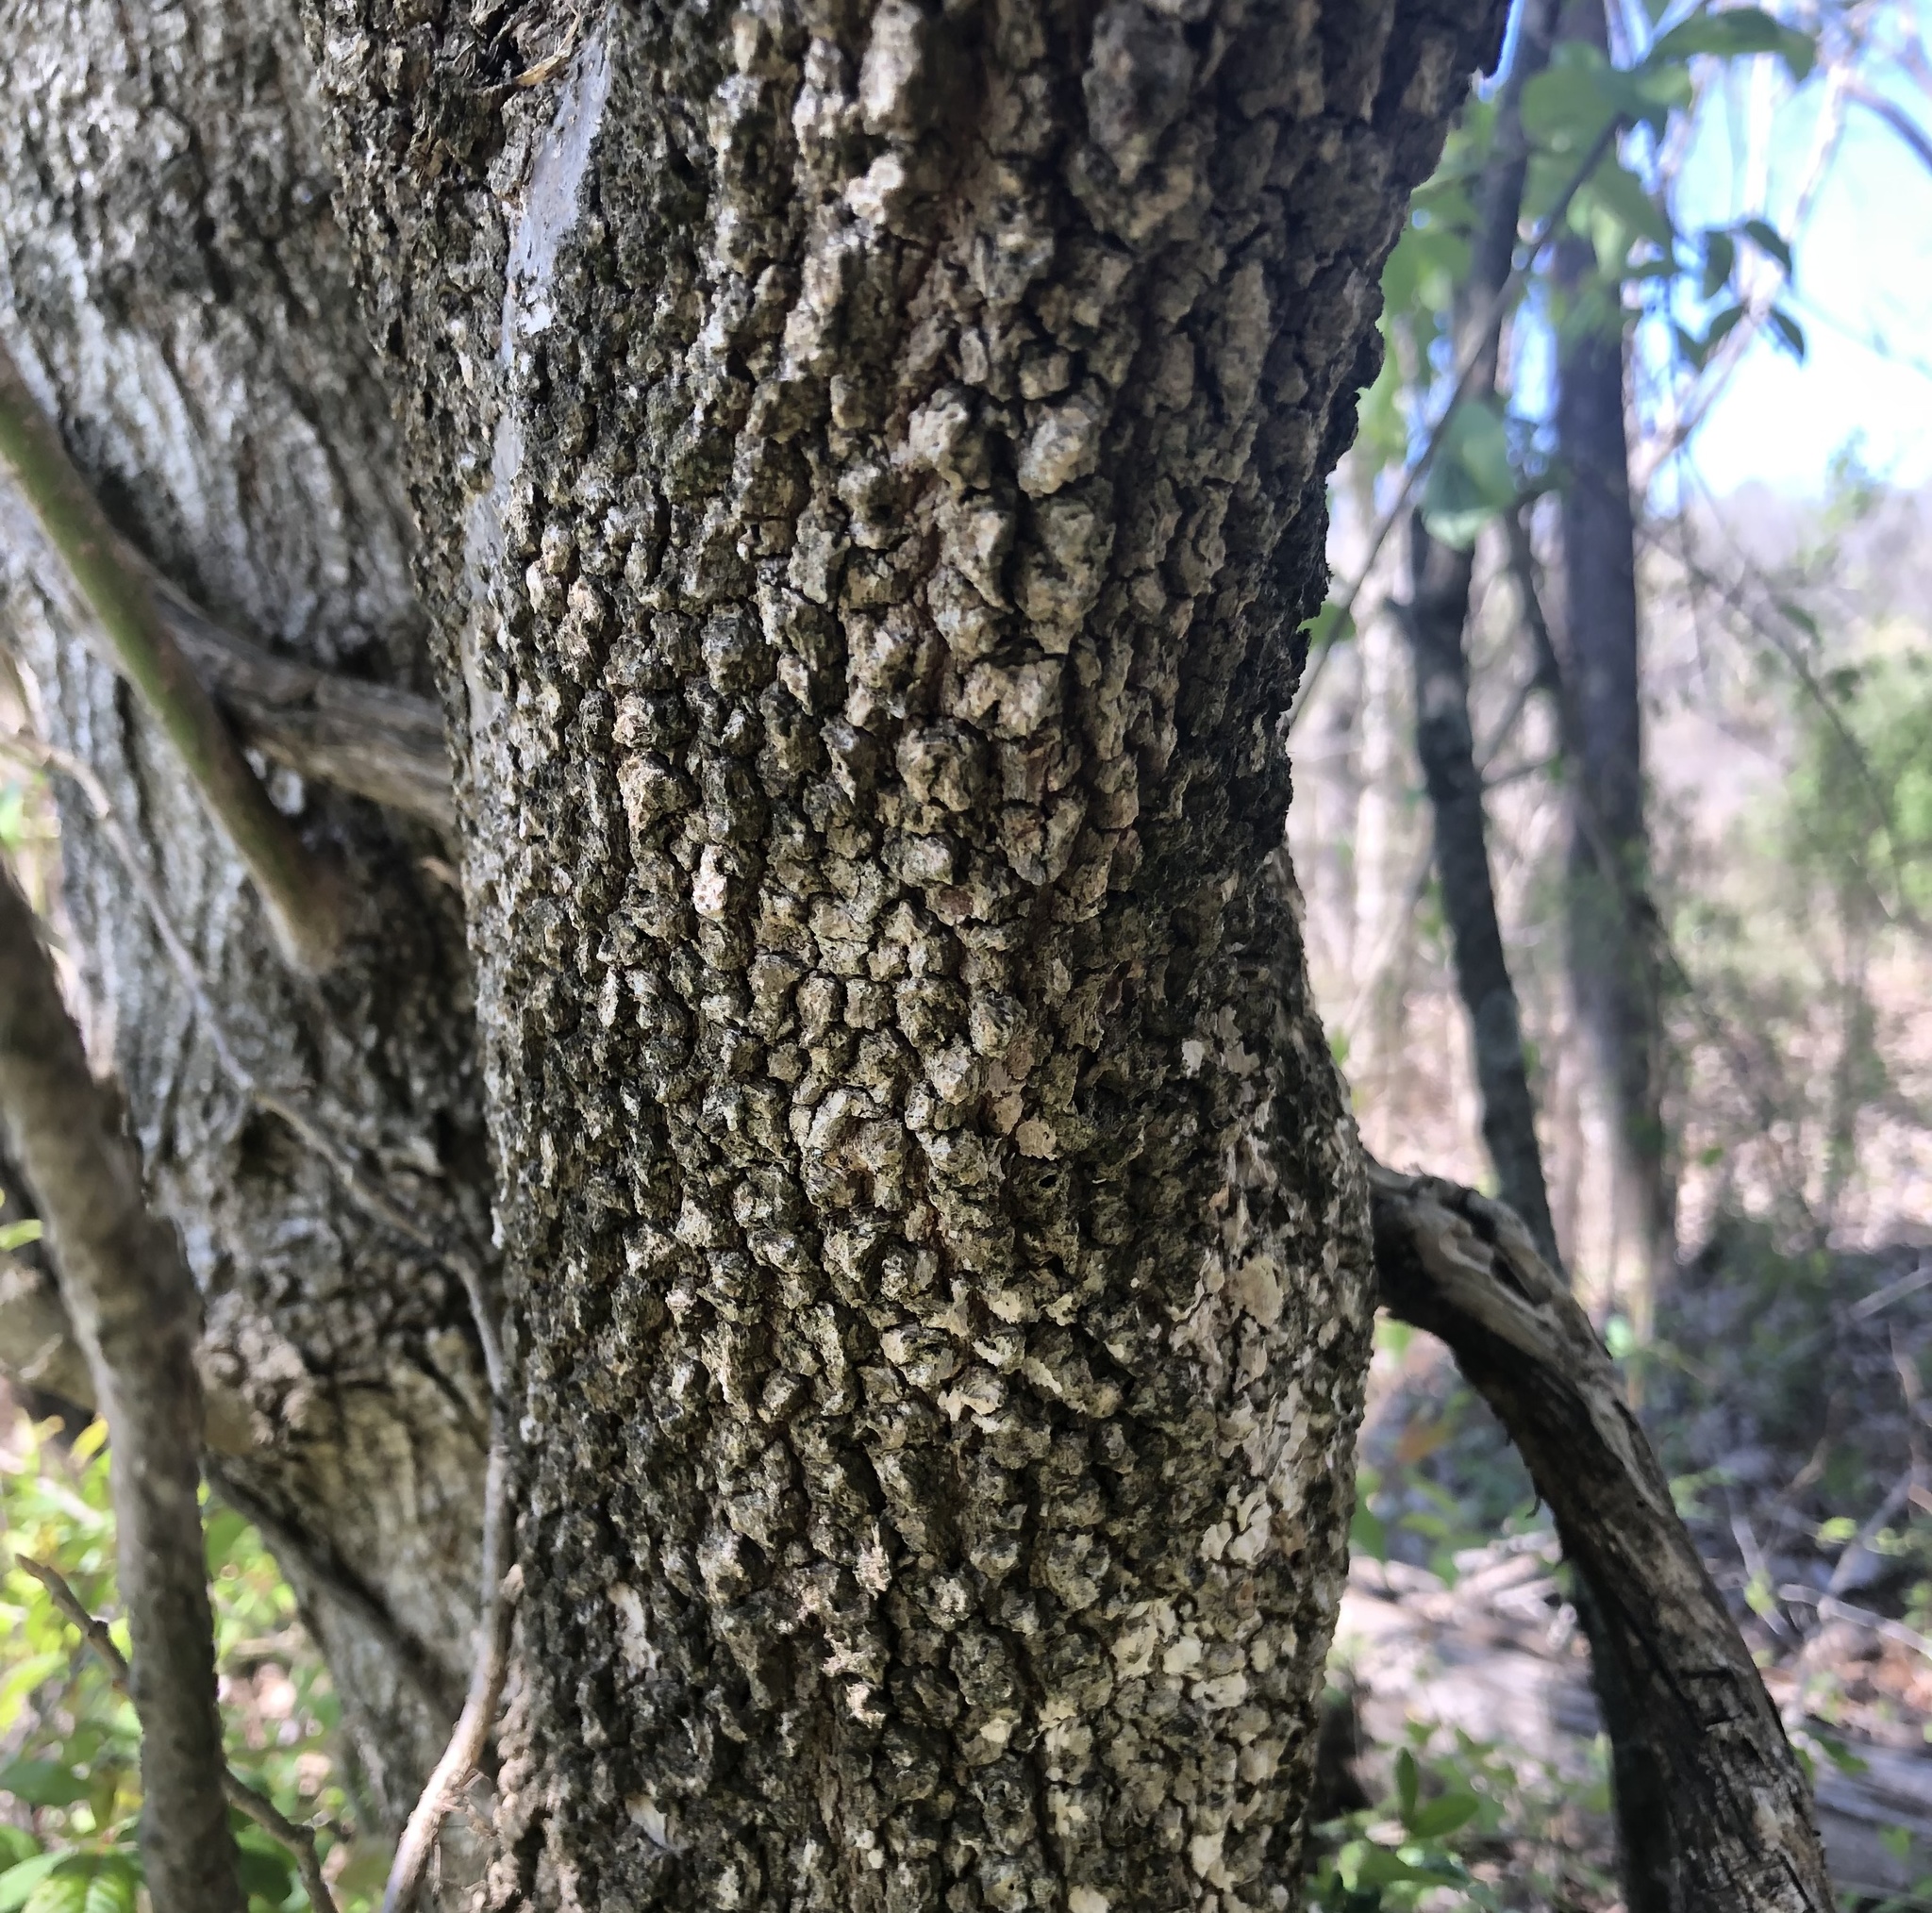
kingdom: Plantae
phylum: Tracheophyta
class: Magnoliopsida
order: Dipsacales
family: Viburnaceae
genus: Viburnum
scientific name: Viburnum prunifolium
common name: Black haw
